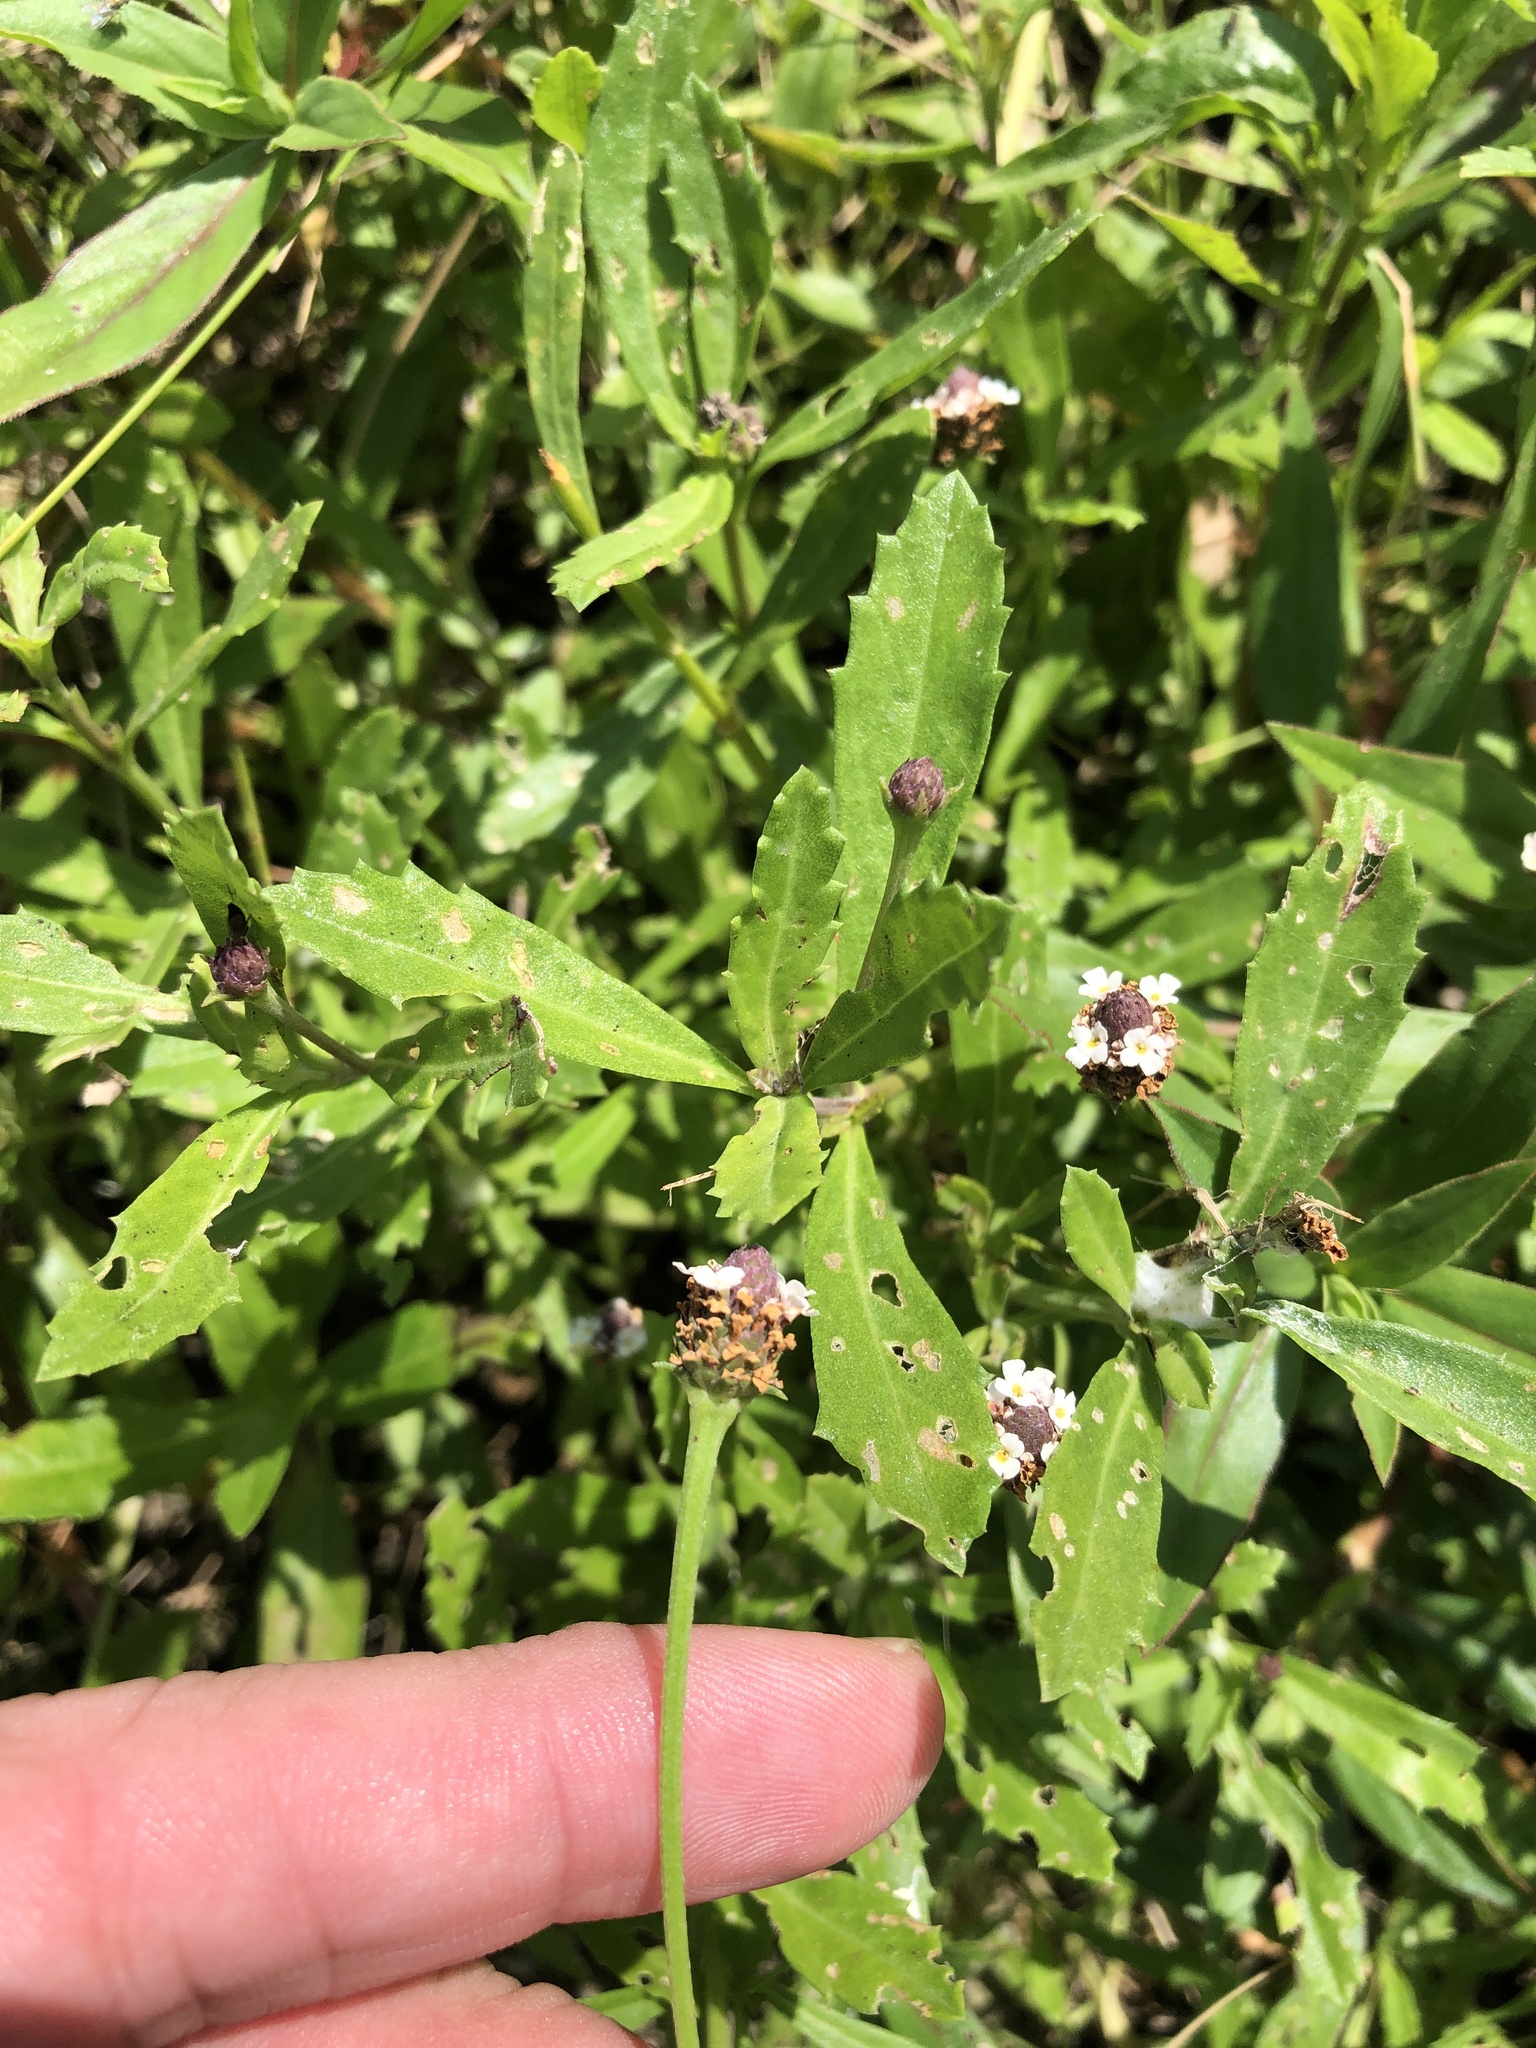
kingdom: Plantae
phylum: Tracheophyta
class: Magnoliopsida
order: Lamiales
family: Verbenaceae
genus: Phyla
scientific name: Phyla nodiflora
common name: Frogfruit
